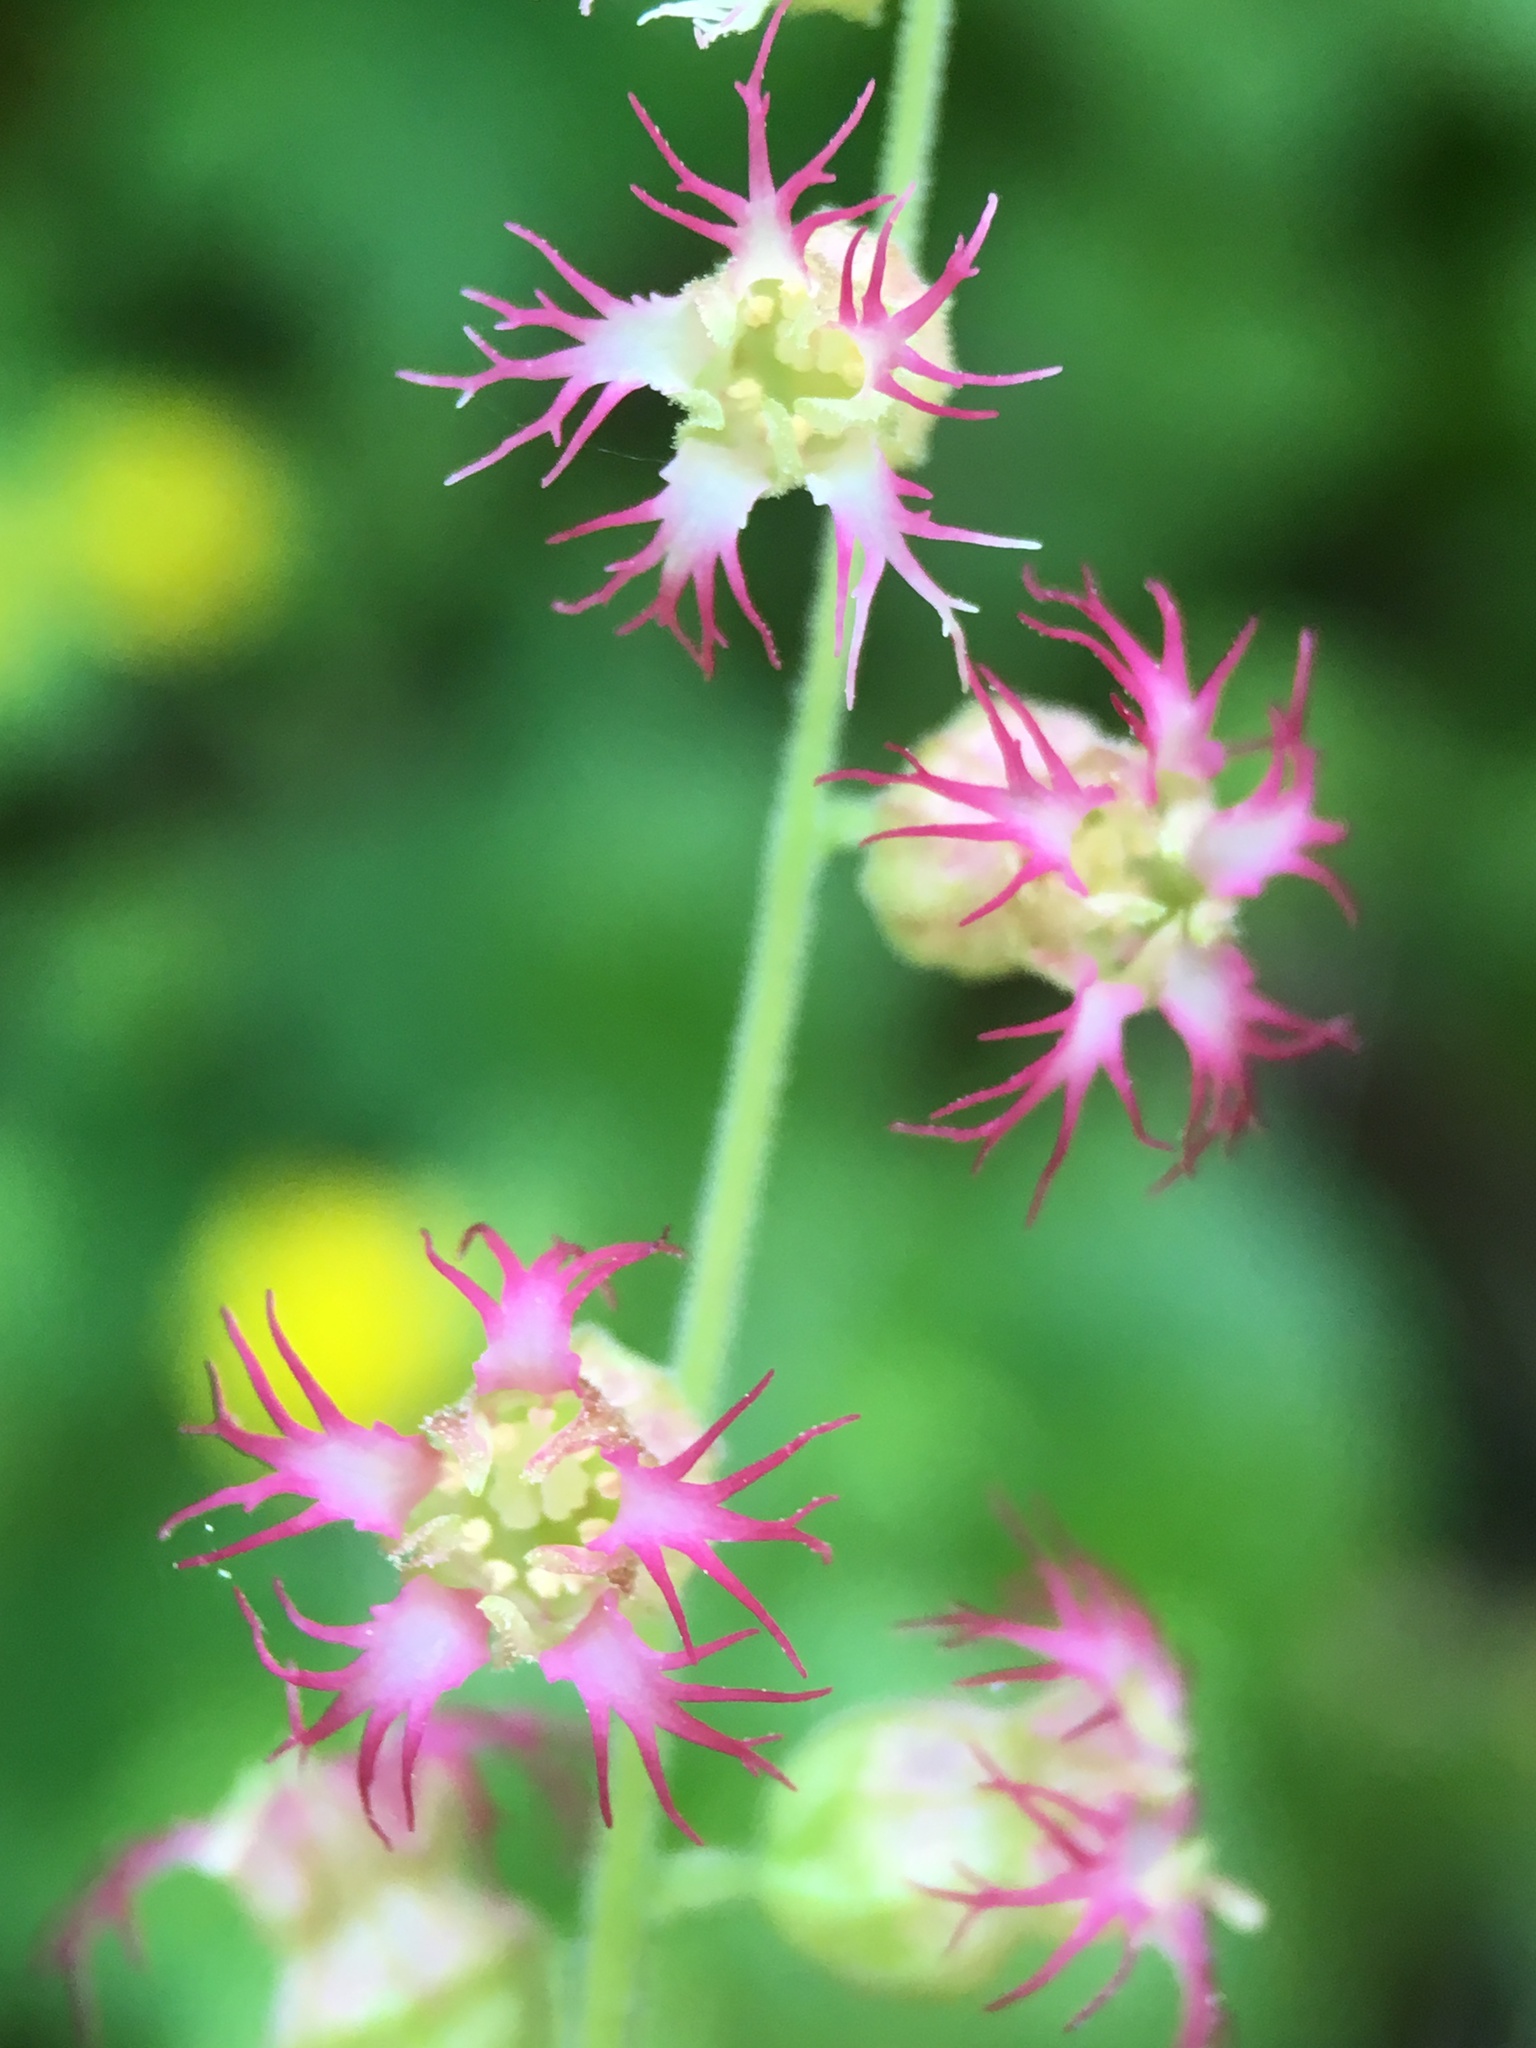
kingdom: Plantae
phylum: Tracheophyta
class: Magnoliopsida
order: Saxifragales
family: Saxifragaceae
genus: Tellima
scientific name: Tellima grandiflora
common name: Fringecups
